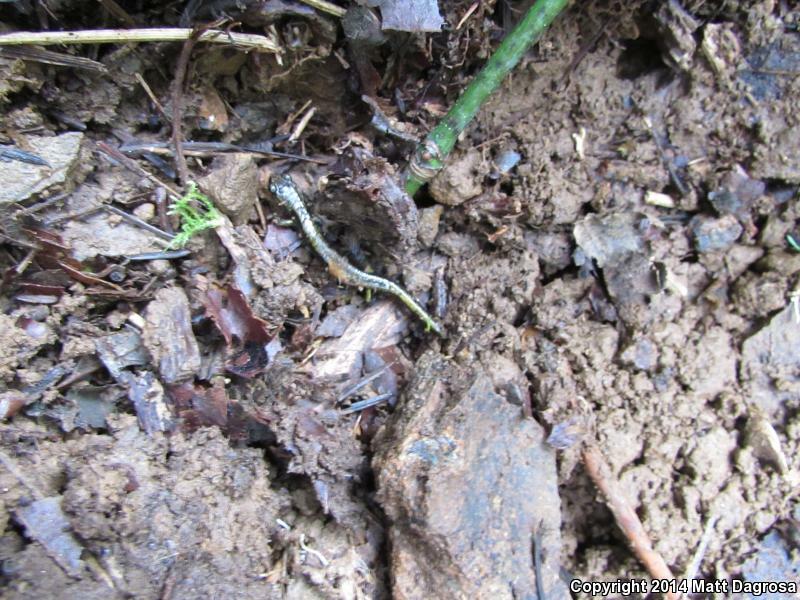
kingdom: Animalia
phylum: Chordata
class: Amphibia
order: Caudata
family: Plethodontidae
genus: Plethodon
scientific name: Plethodon dunni
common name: Dunn's salamander
